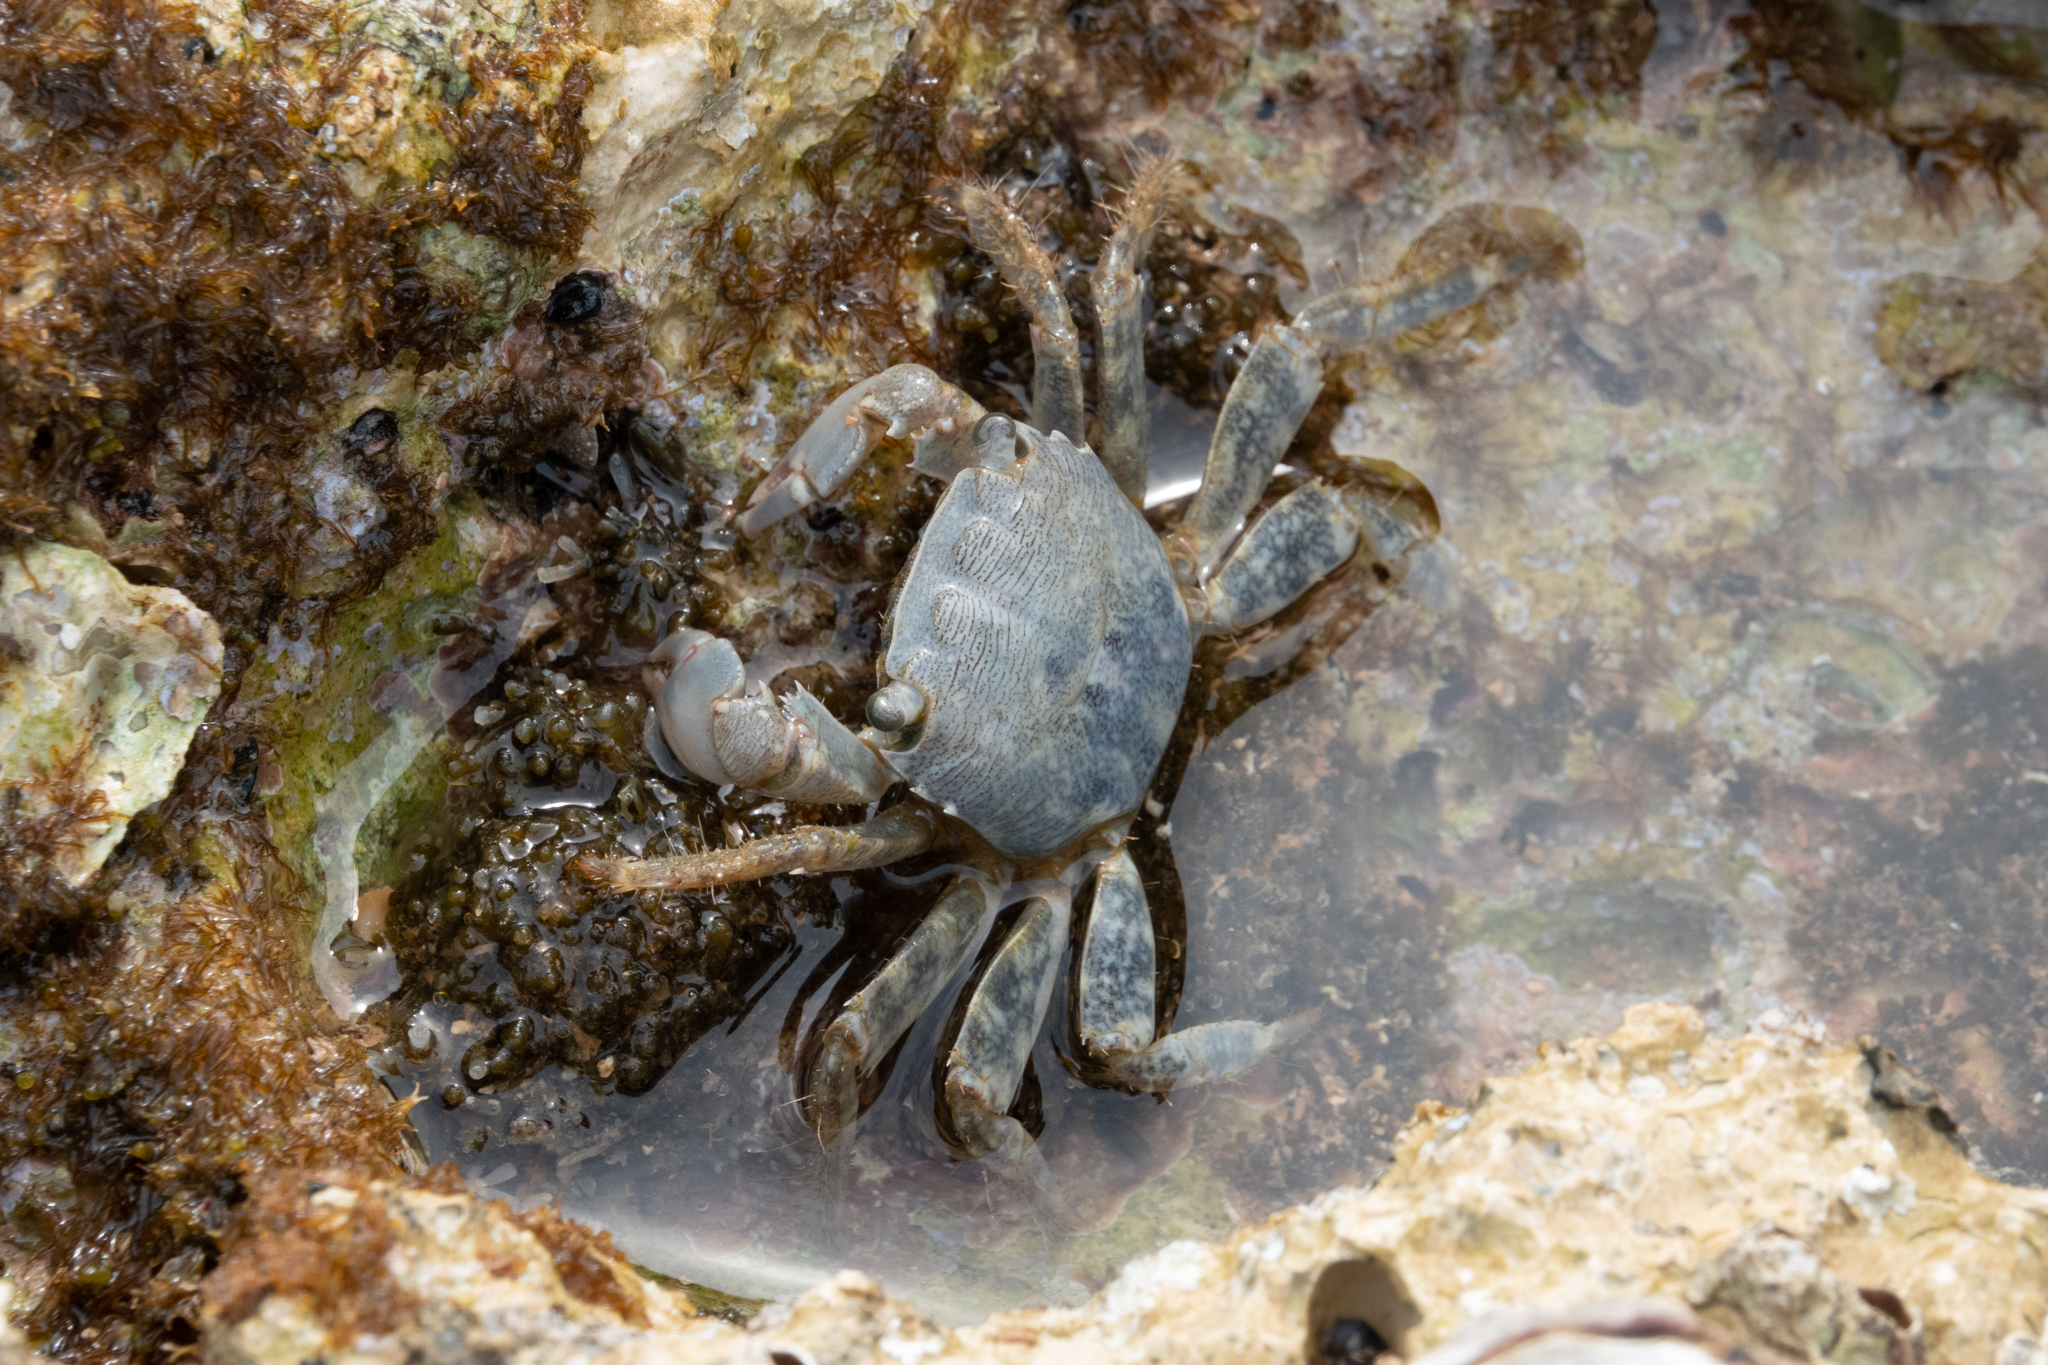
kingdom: Animalia
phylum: Arthropoda
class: Malacostraca
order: Decapoda
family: Grapsidae
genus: Pachygrapsus
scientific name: Pachygrapsus marmoratus
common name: Marbled rock crab
